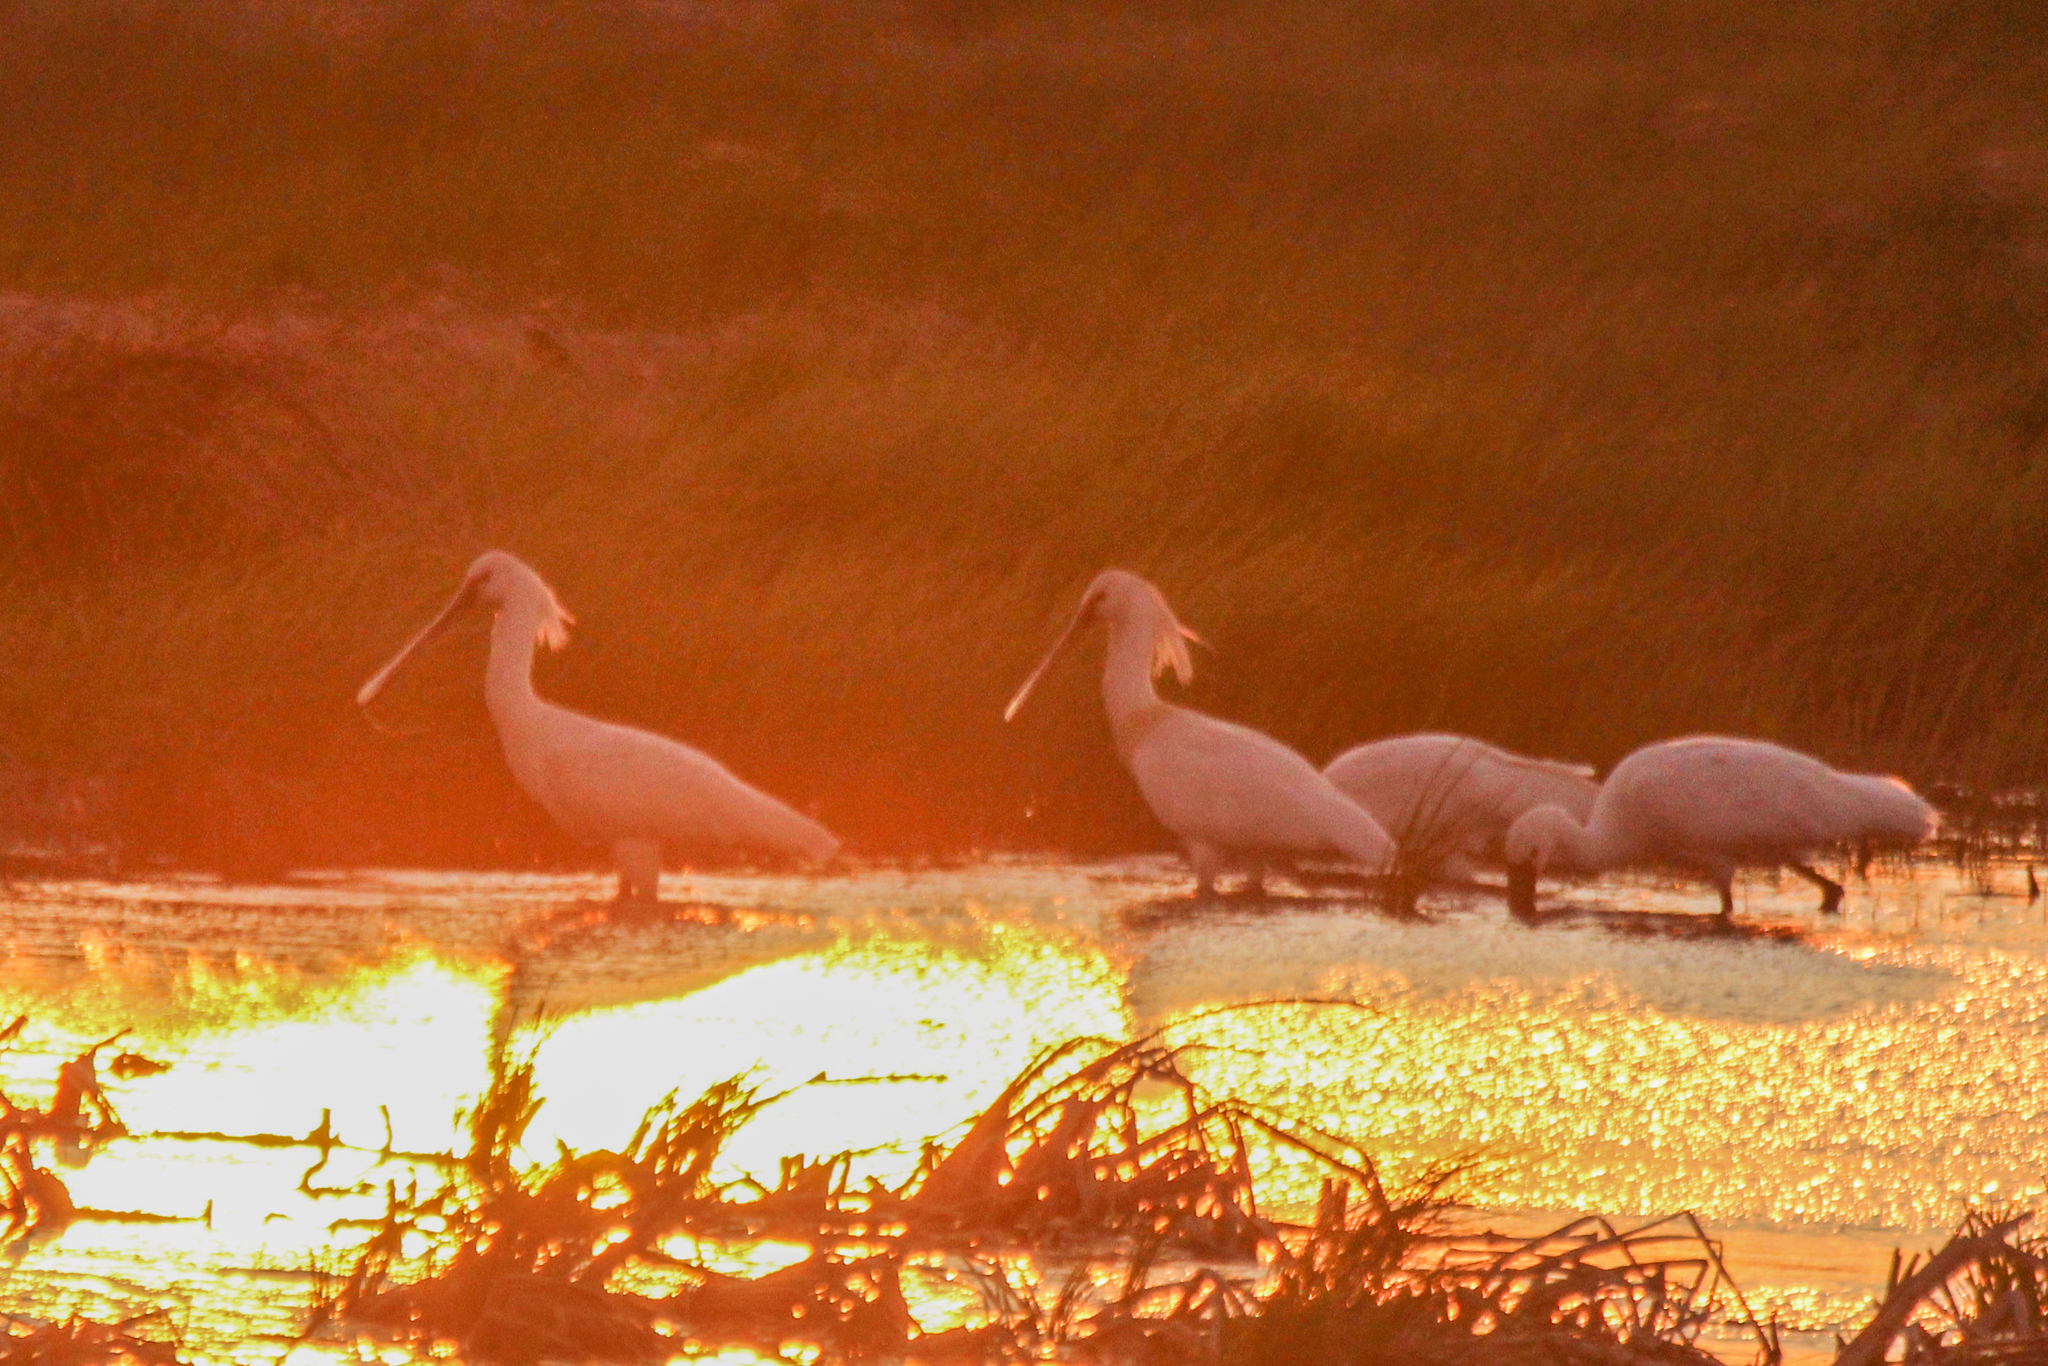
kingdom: Animalia
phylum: Chordata
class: Aves
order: Pelecaniformes
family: Threskiornithidae
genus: Platalea
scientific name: Platalea leucorodia
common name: Eurasian spoonbill
